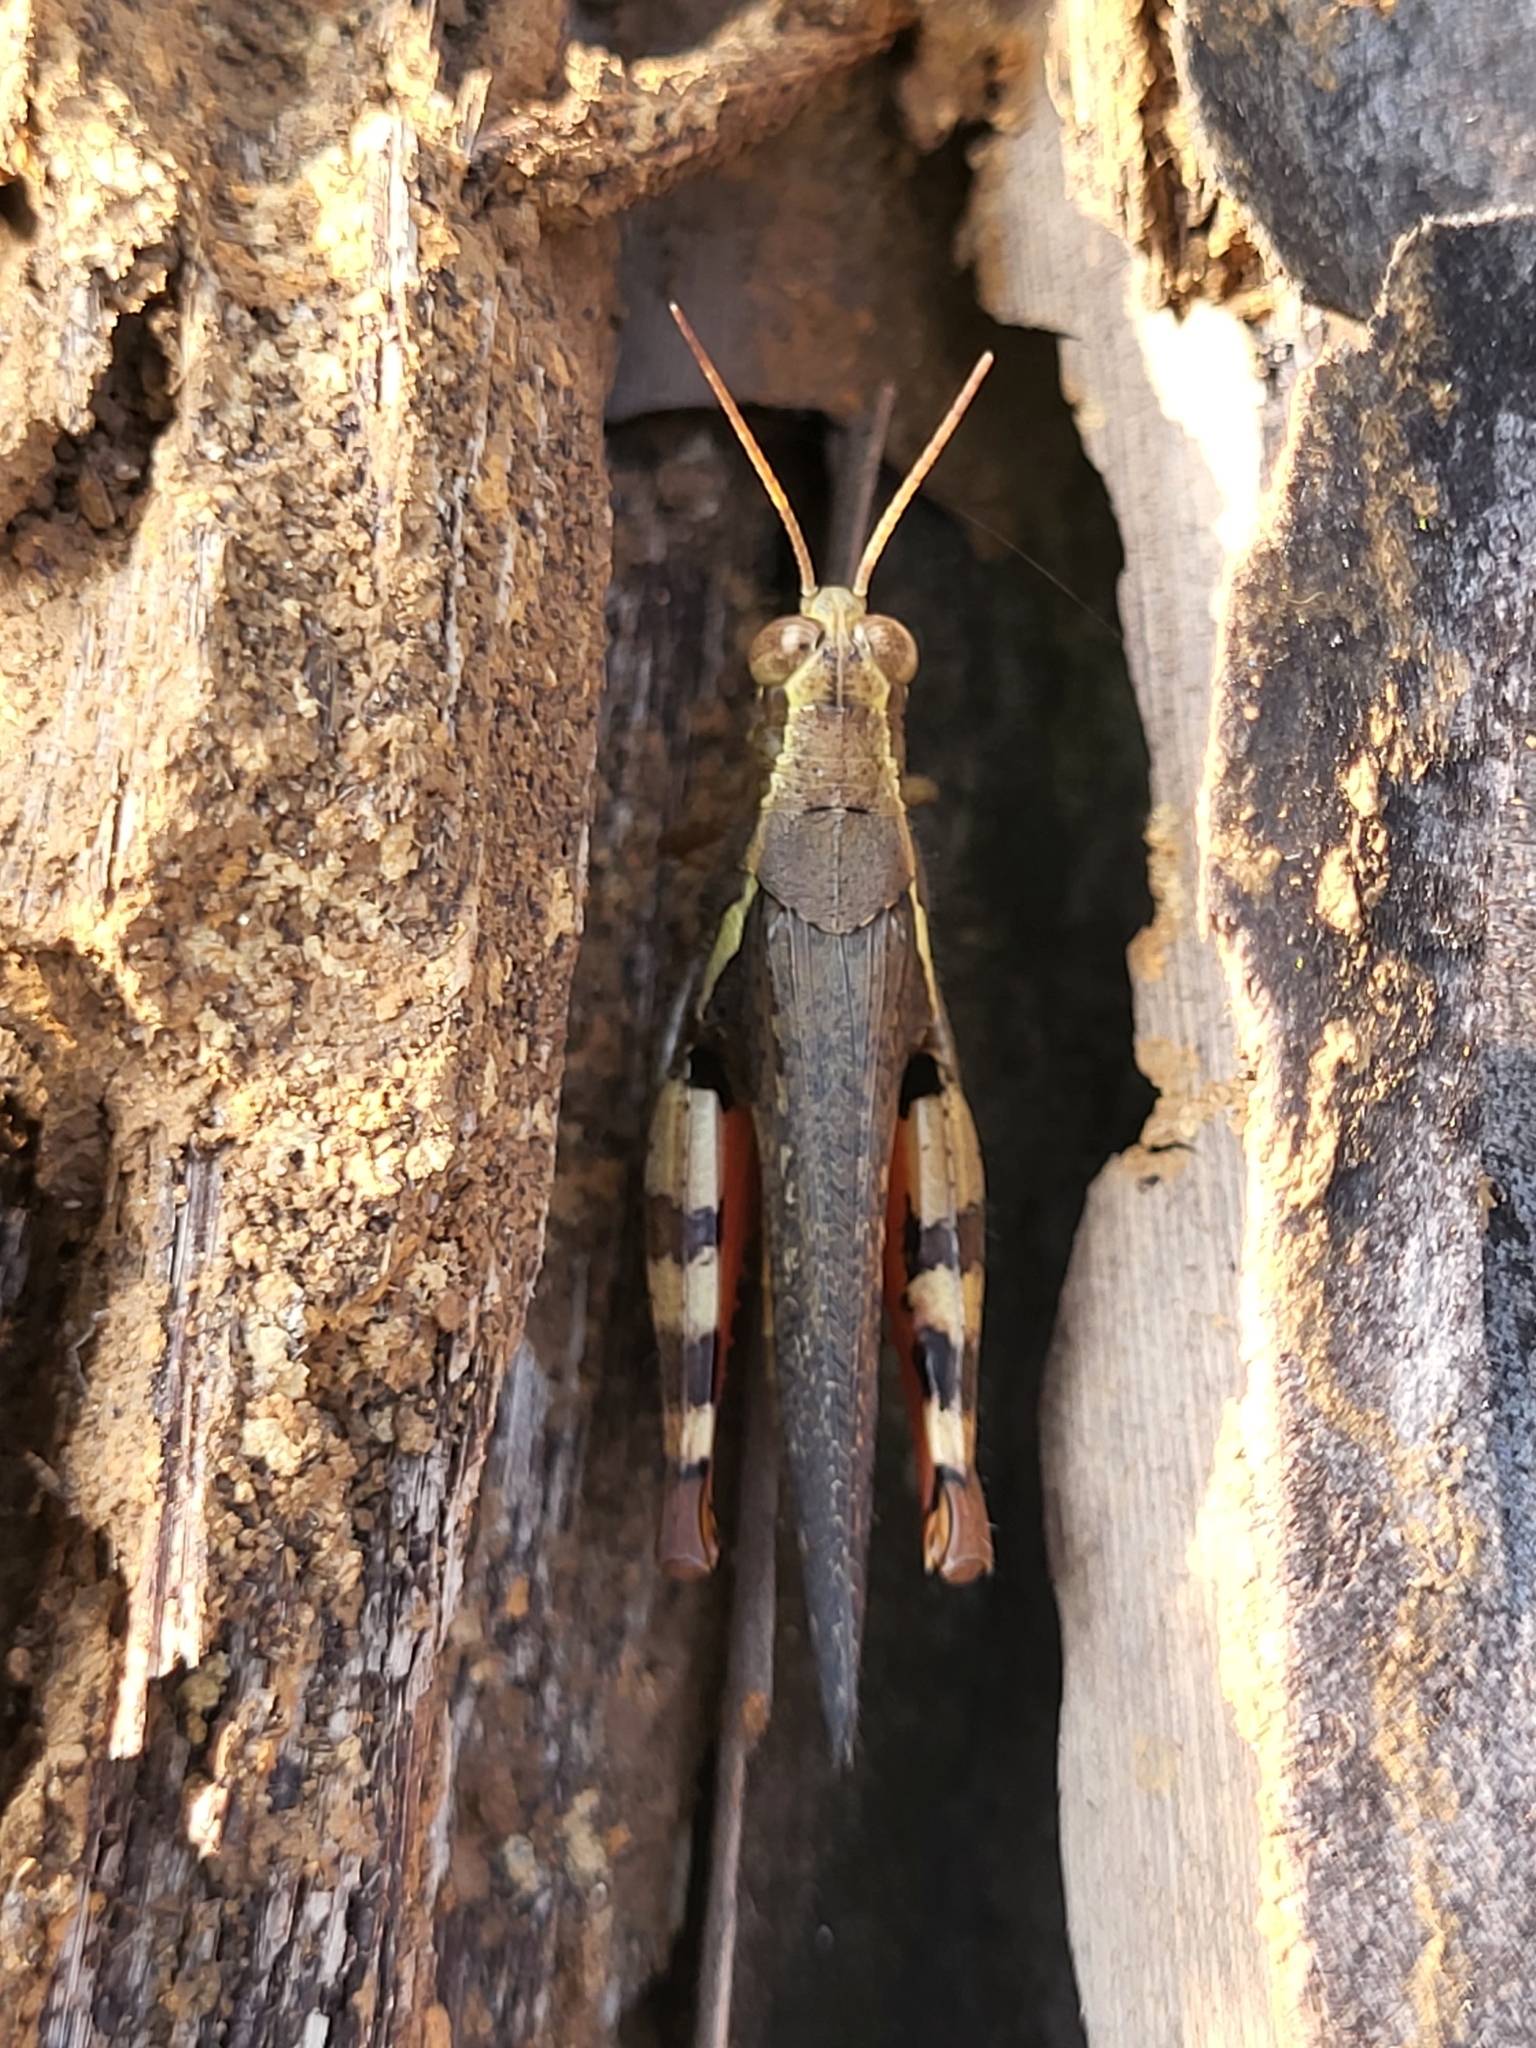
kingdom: Animalia
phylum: Arthropoda
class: Insecta
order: Orthoptera
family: Acrididae
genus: Xenocatantops
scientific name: Xenocatantops humile
